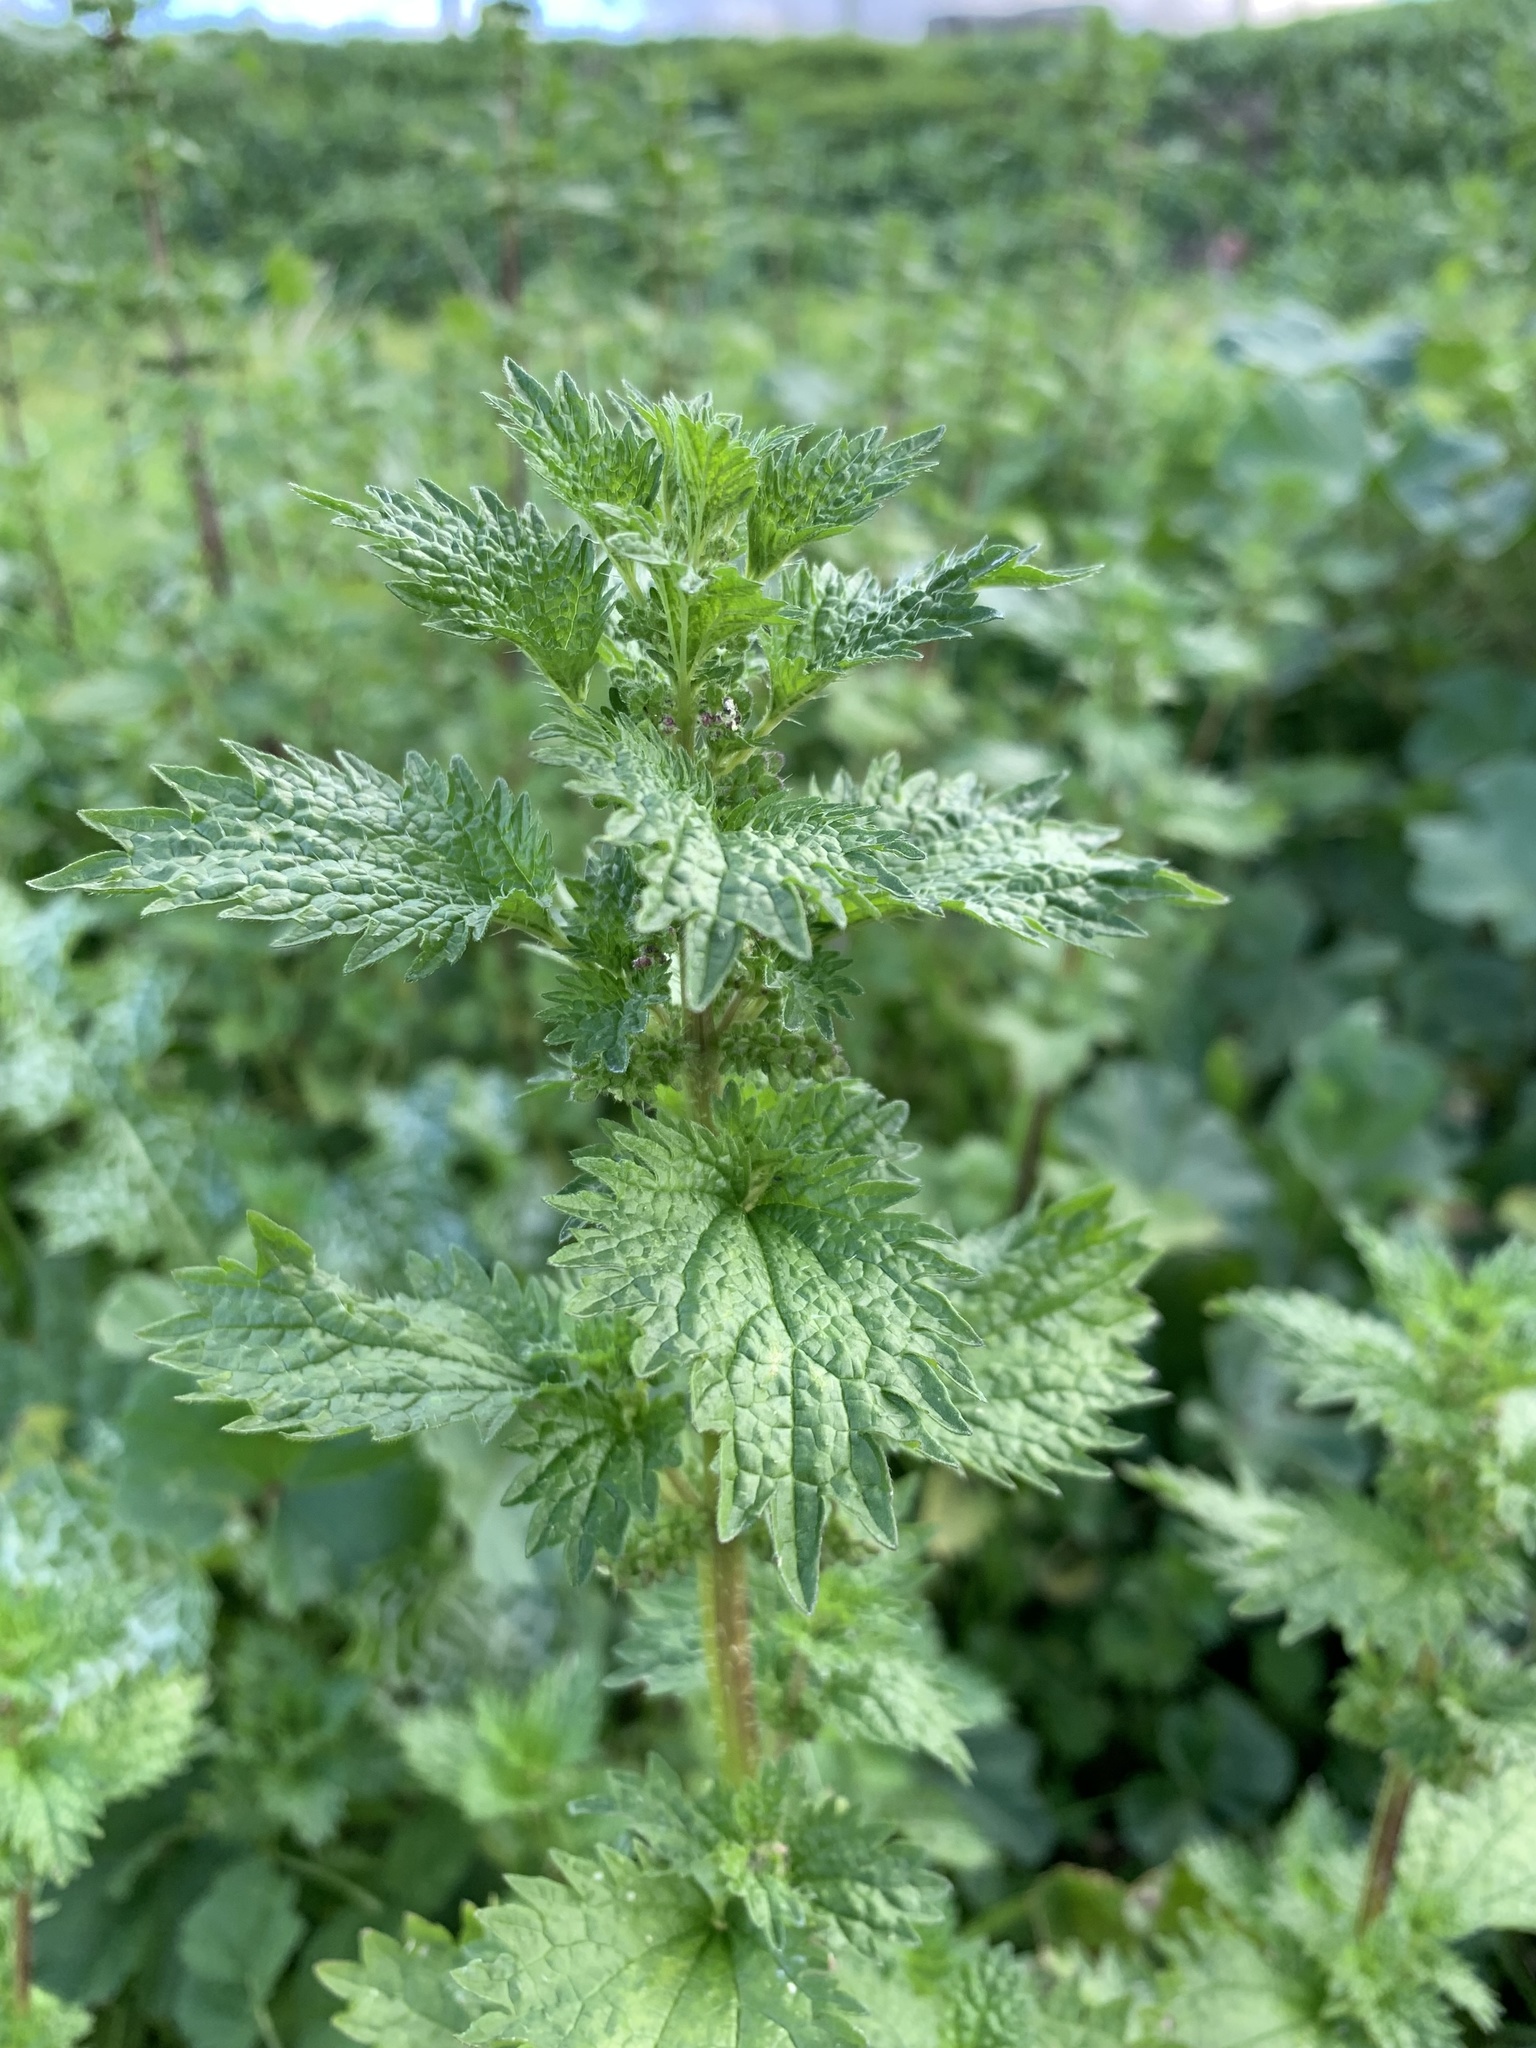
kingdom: Plantae
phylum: Tracheophyta
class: Magnoliopsida
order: Rosales
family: Urticaceae
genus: Urtica
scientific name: Urtica urens
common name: Dwarf nettle
